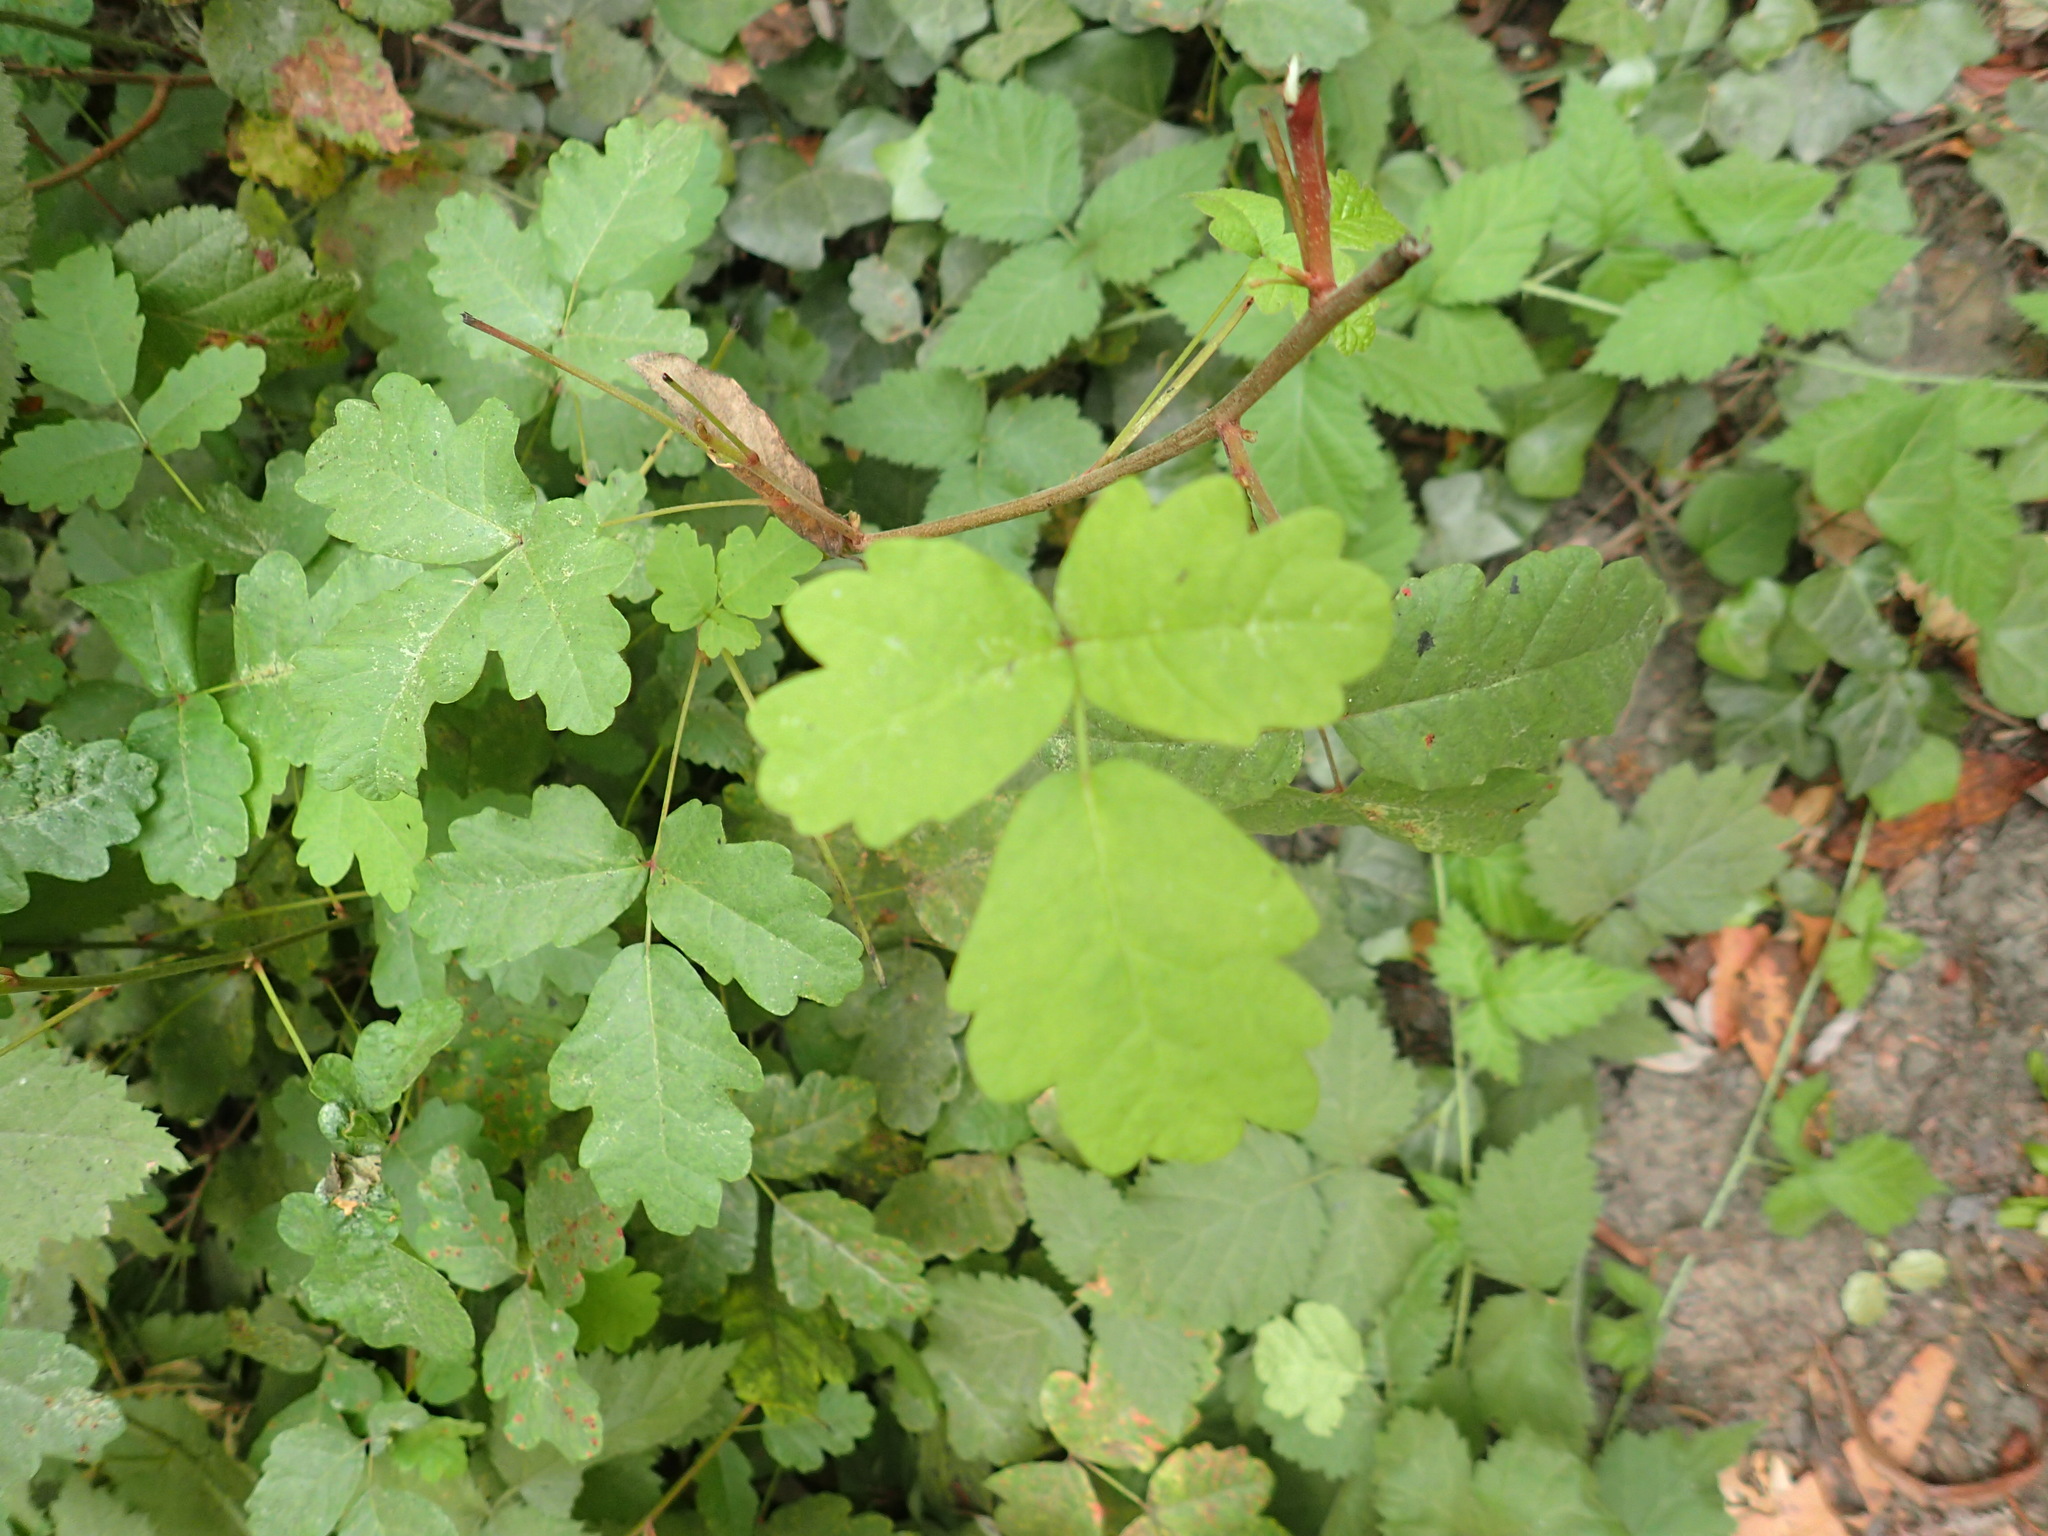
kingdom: Plantae
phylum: Tracheophyta
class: Magnoliopsida
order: Sapindales
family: Anacardiaceae
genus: Toxicodendron
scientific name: Toxicodendron diversilobum
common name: Pacific poison-oak
